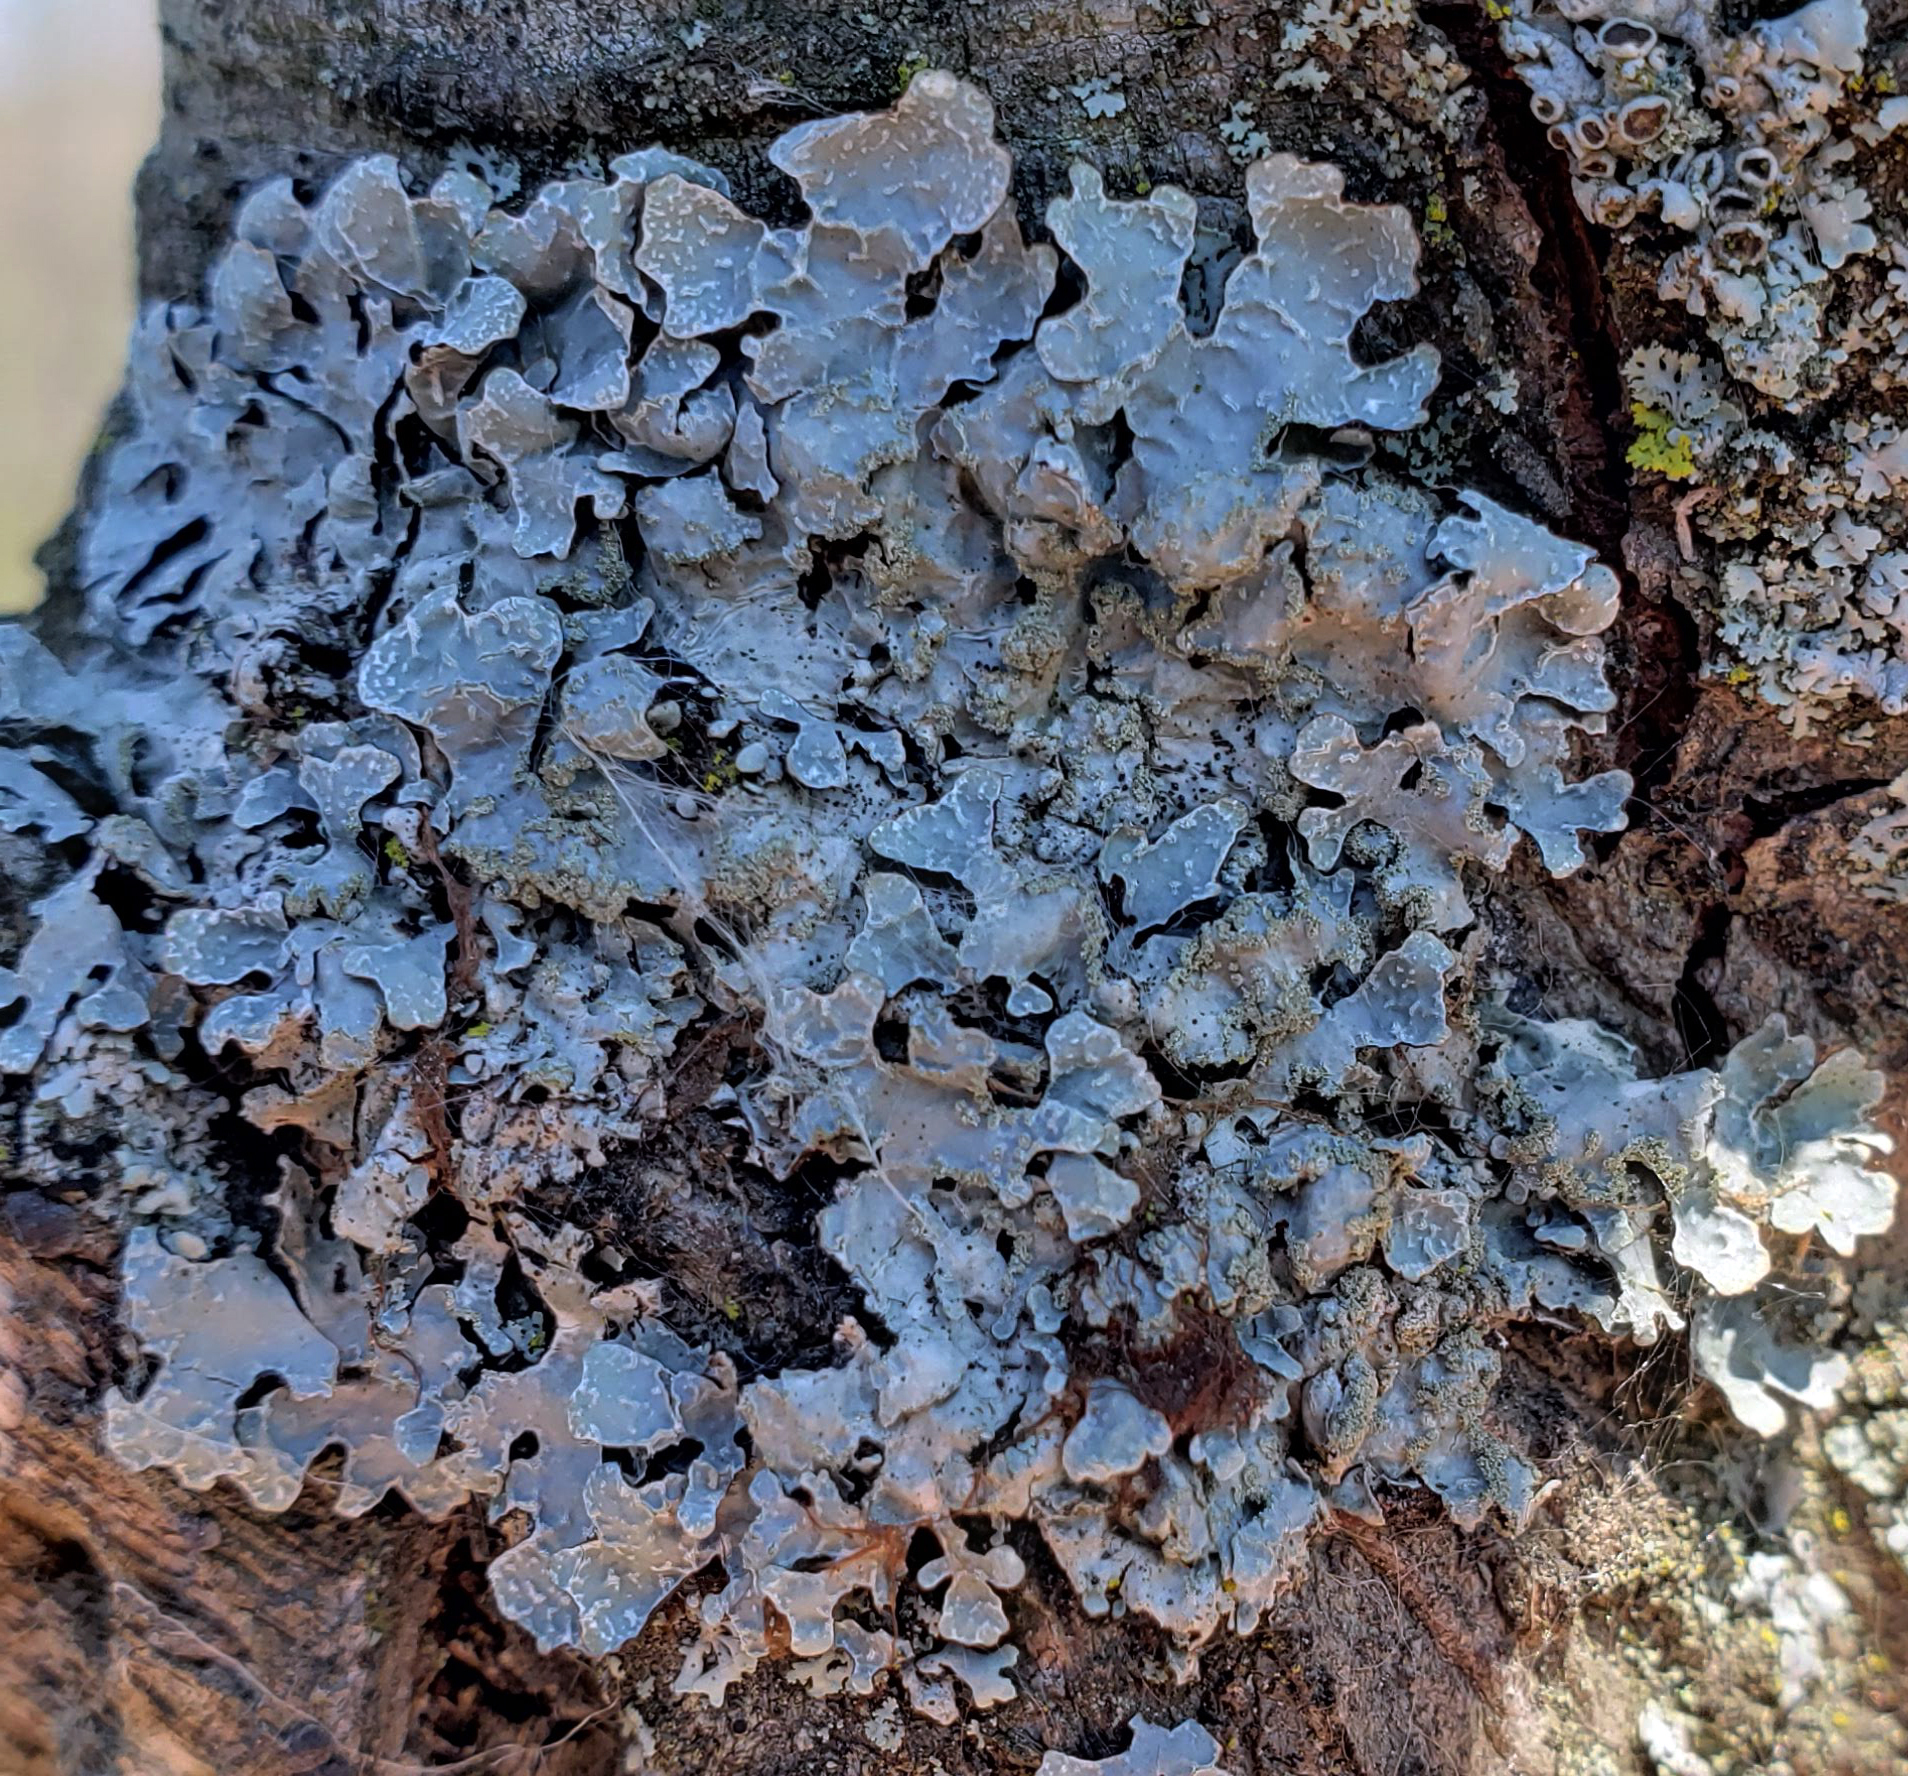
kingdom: Fungi
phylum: Ascomycota
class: Lecanoromycetes
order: Lecanorales
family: Parmeliaceae
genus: Parmelia
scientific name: Parmelia sulcata
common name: Netted shield lichen
